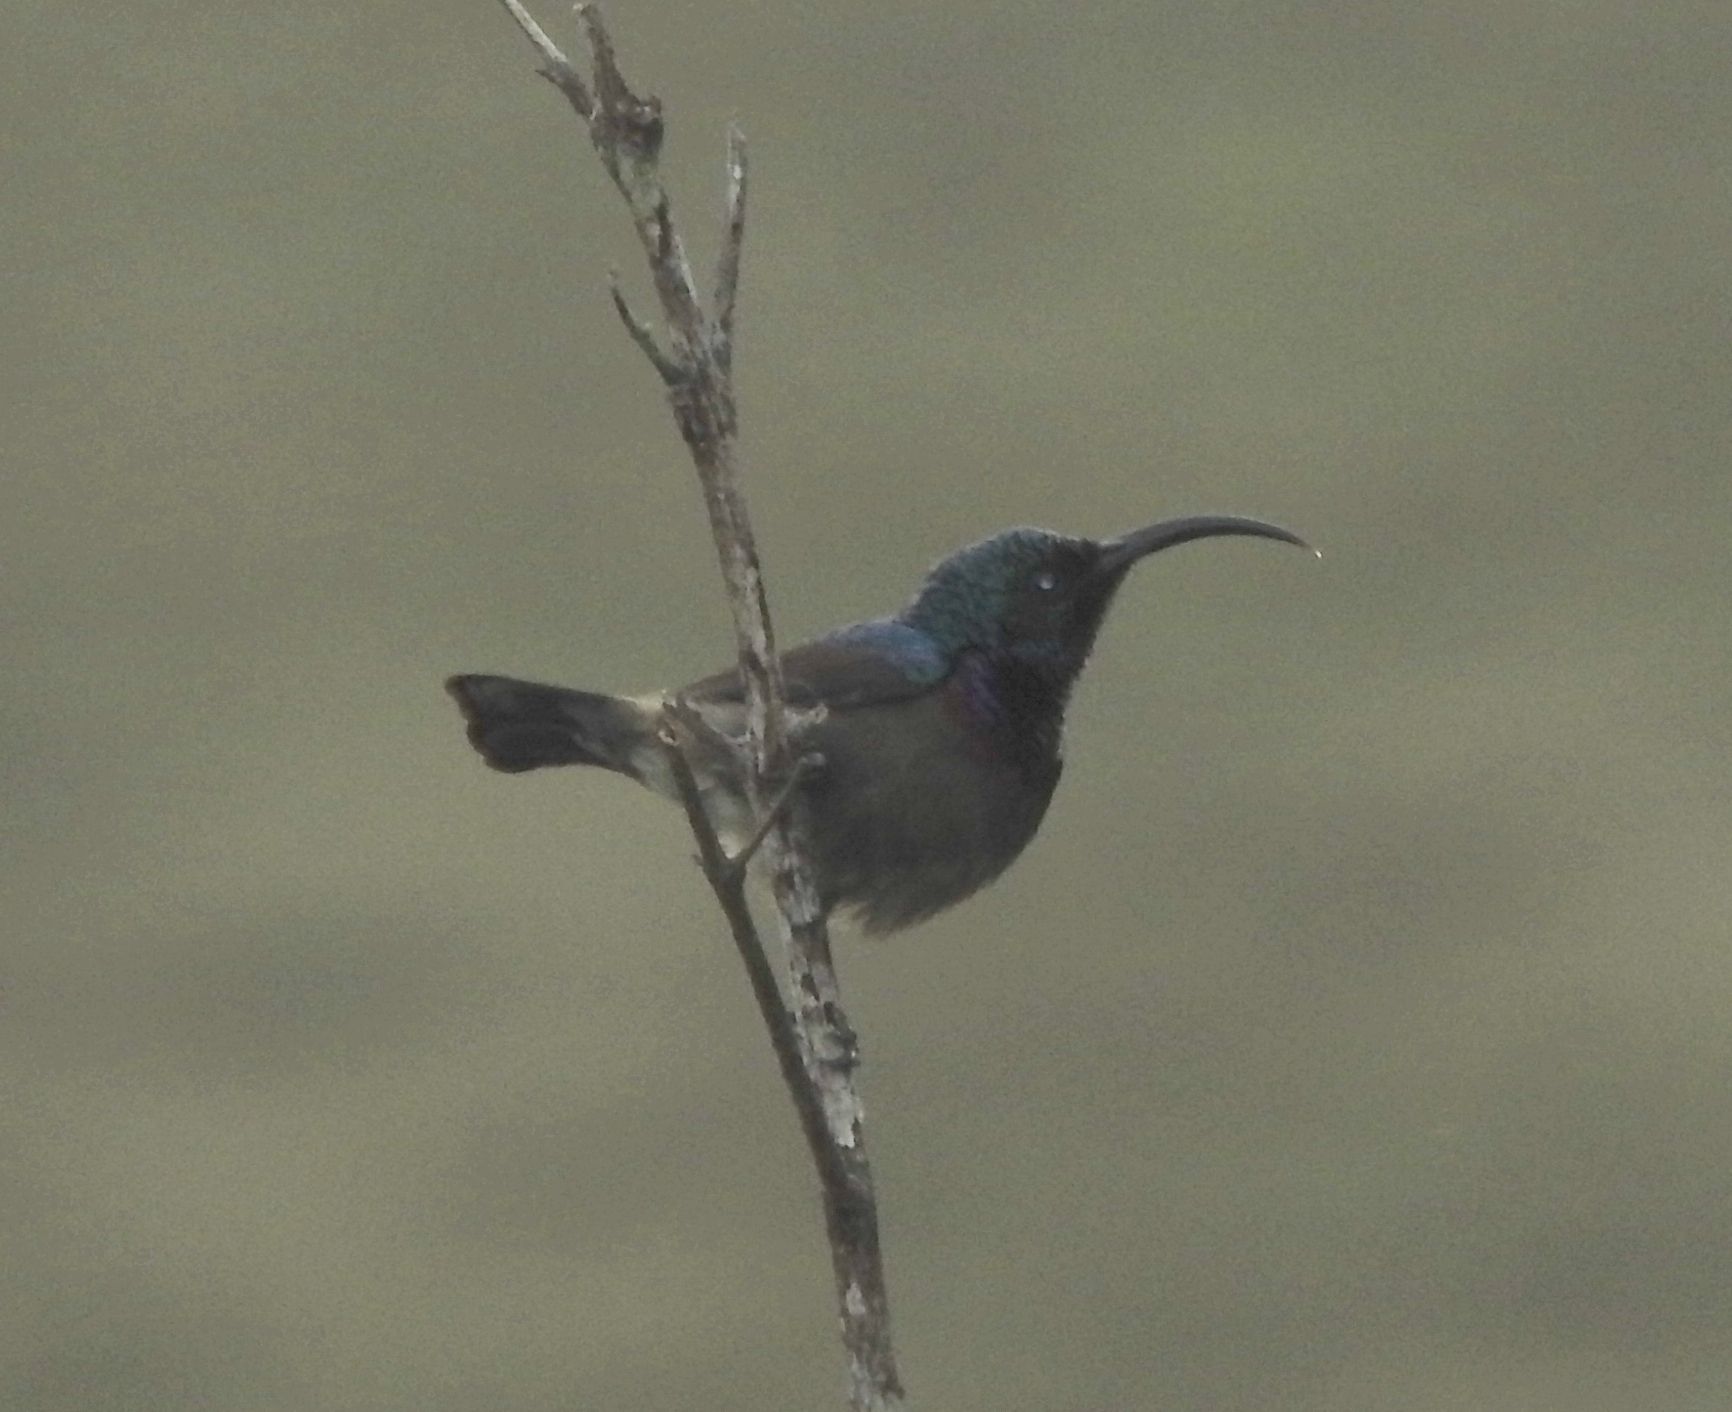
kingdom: Animalia
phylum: Chordata
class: Aves
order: Passeriformes
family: Nectariniidae
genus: Cinnyris
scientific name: Cinnyris lotenius
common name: Loten's sunbird
